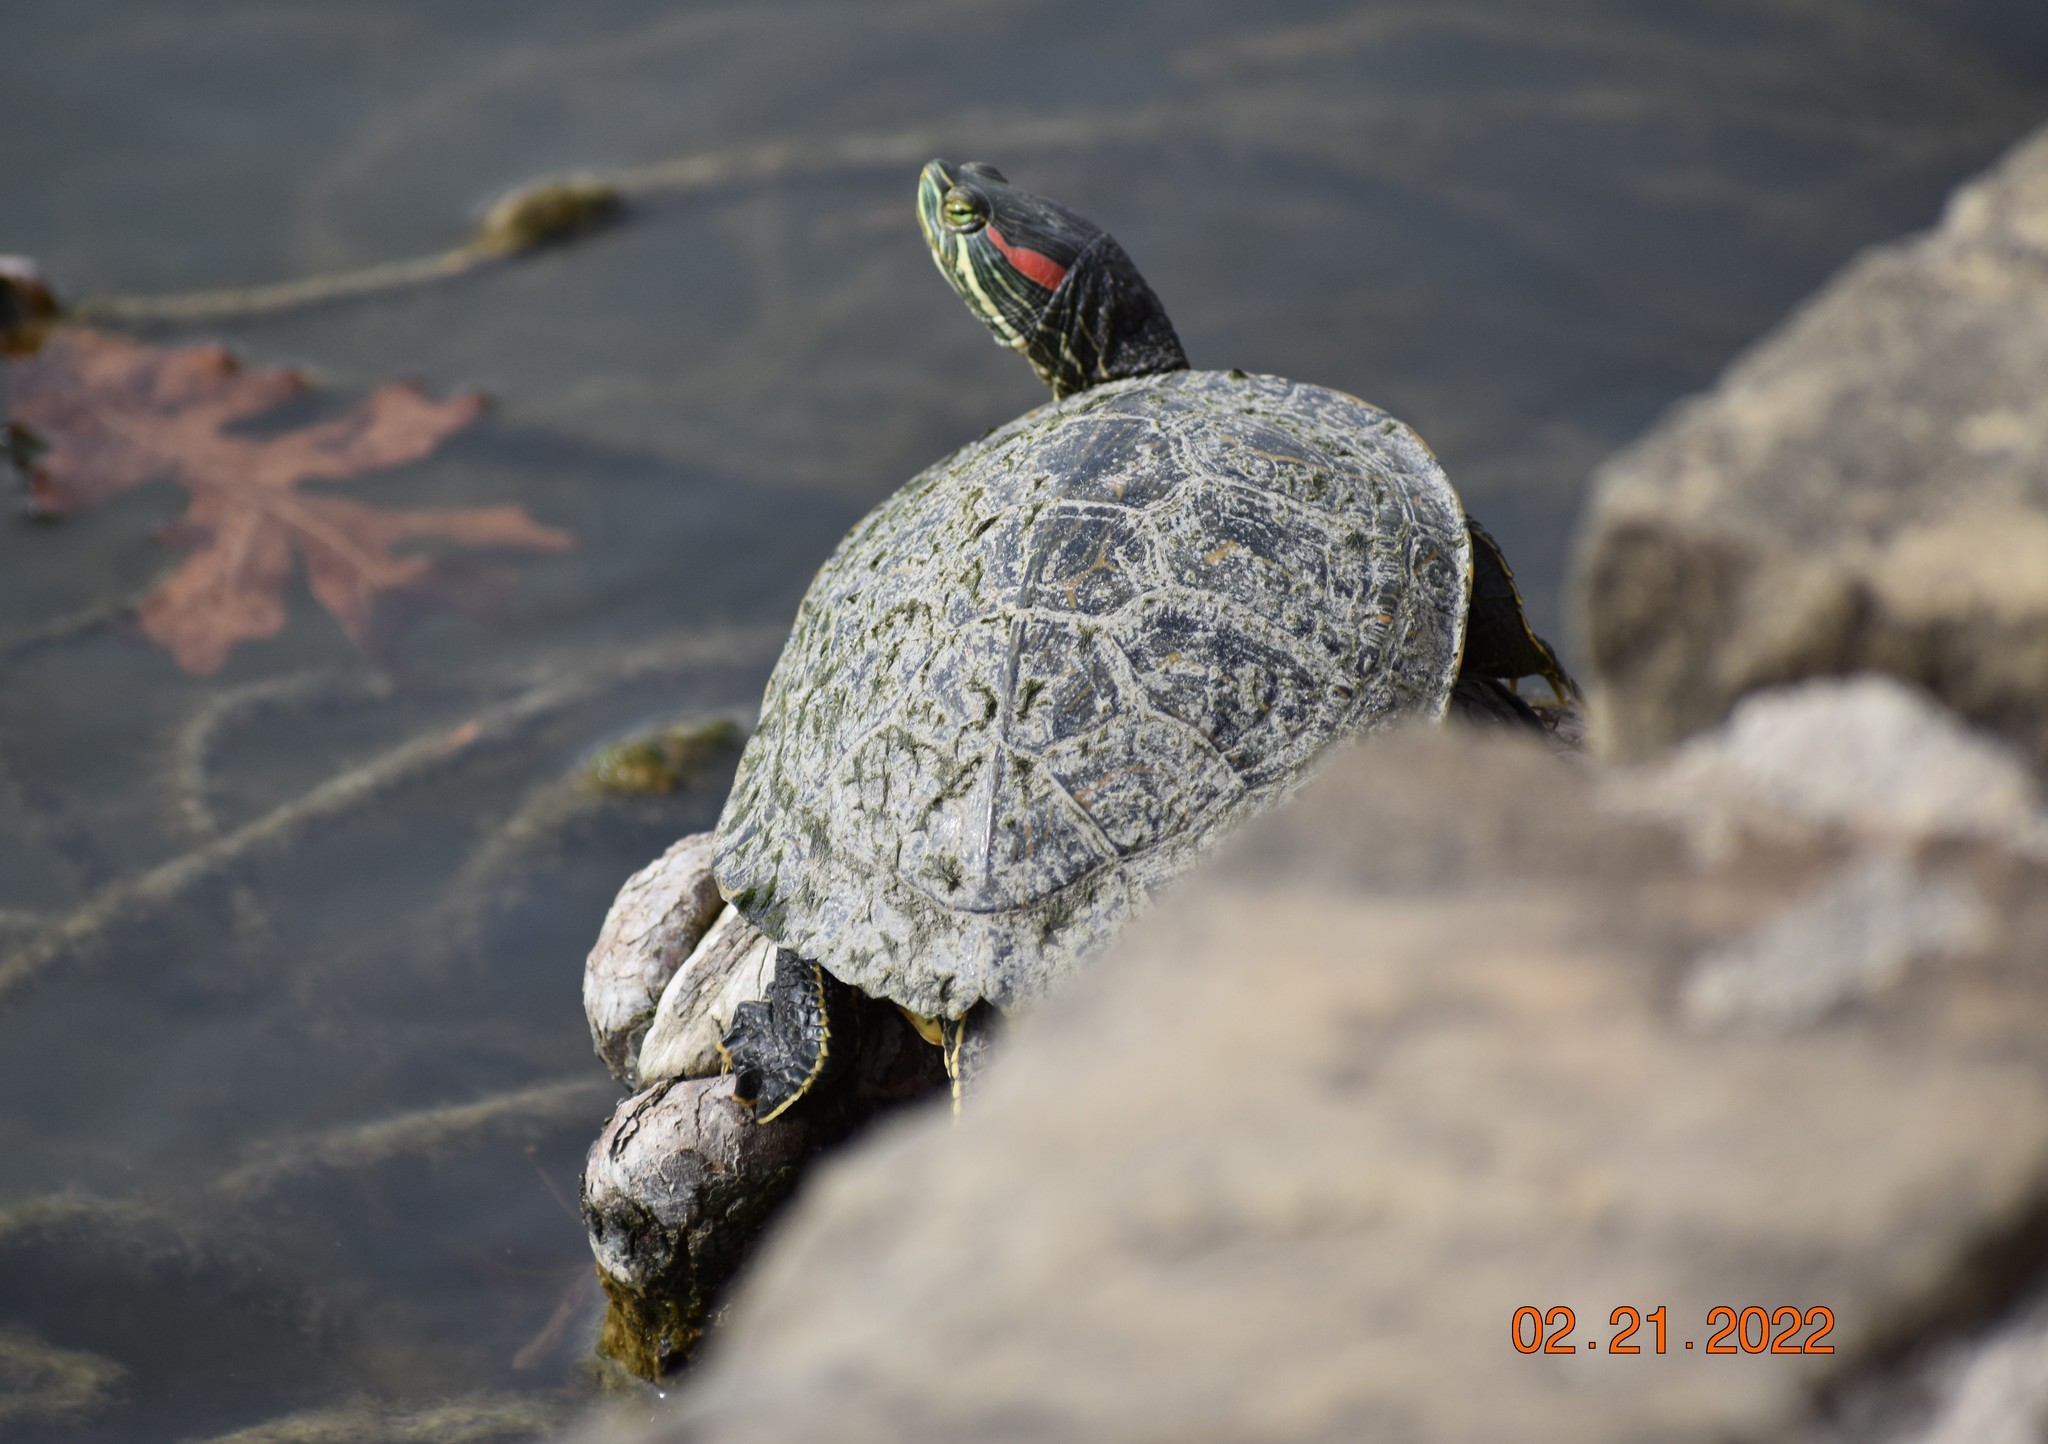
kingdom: Animalia
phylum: Chordata
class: Testudines
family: Emydidae
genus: Trachemys
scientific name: Trachemys scripta
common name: Slider
